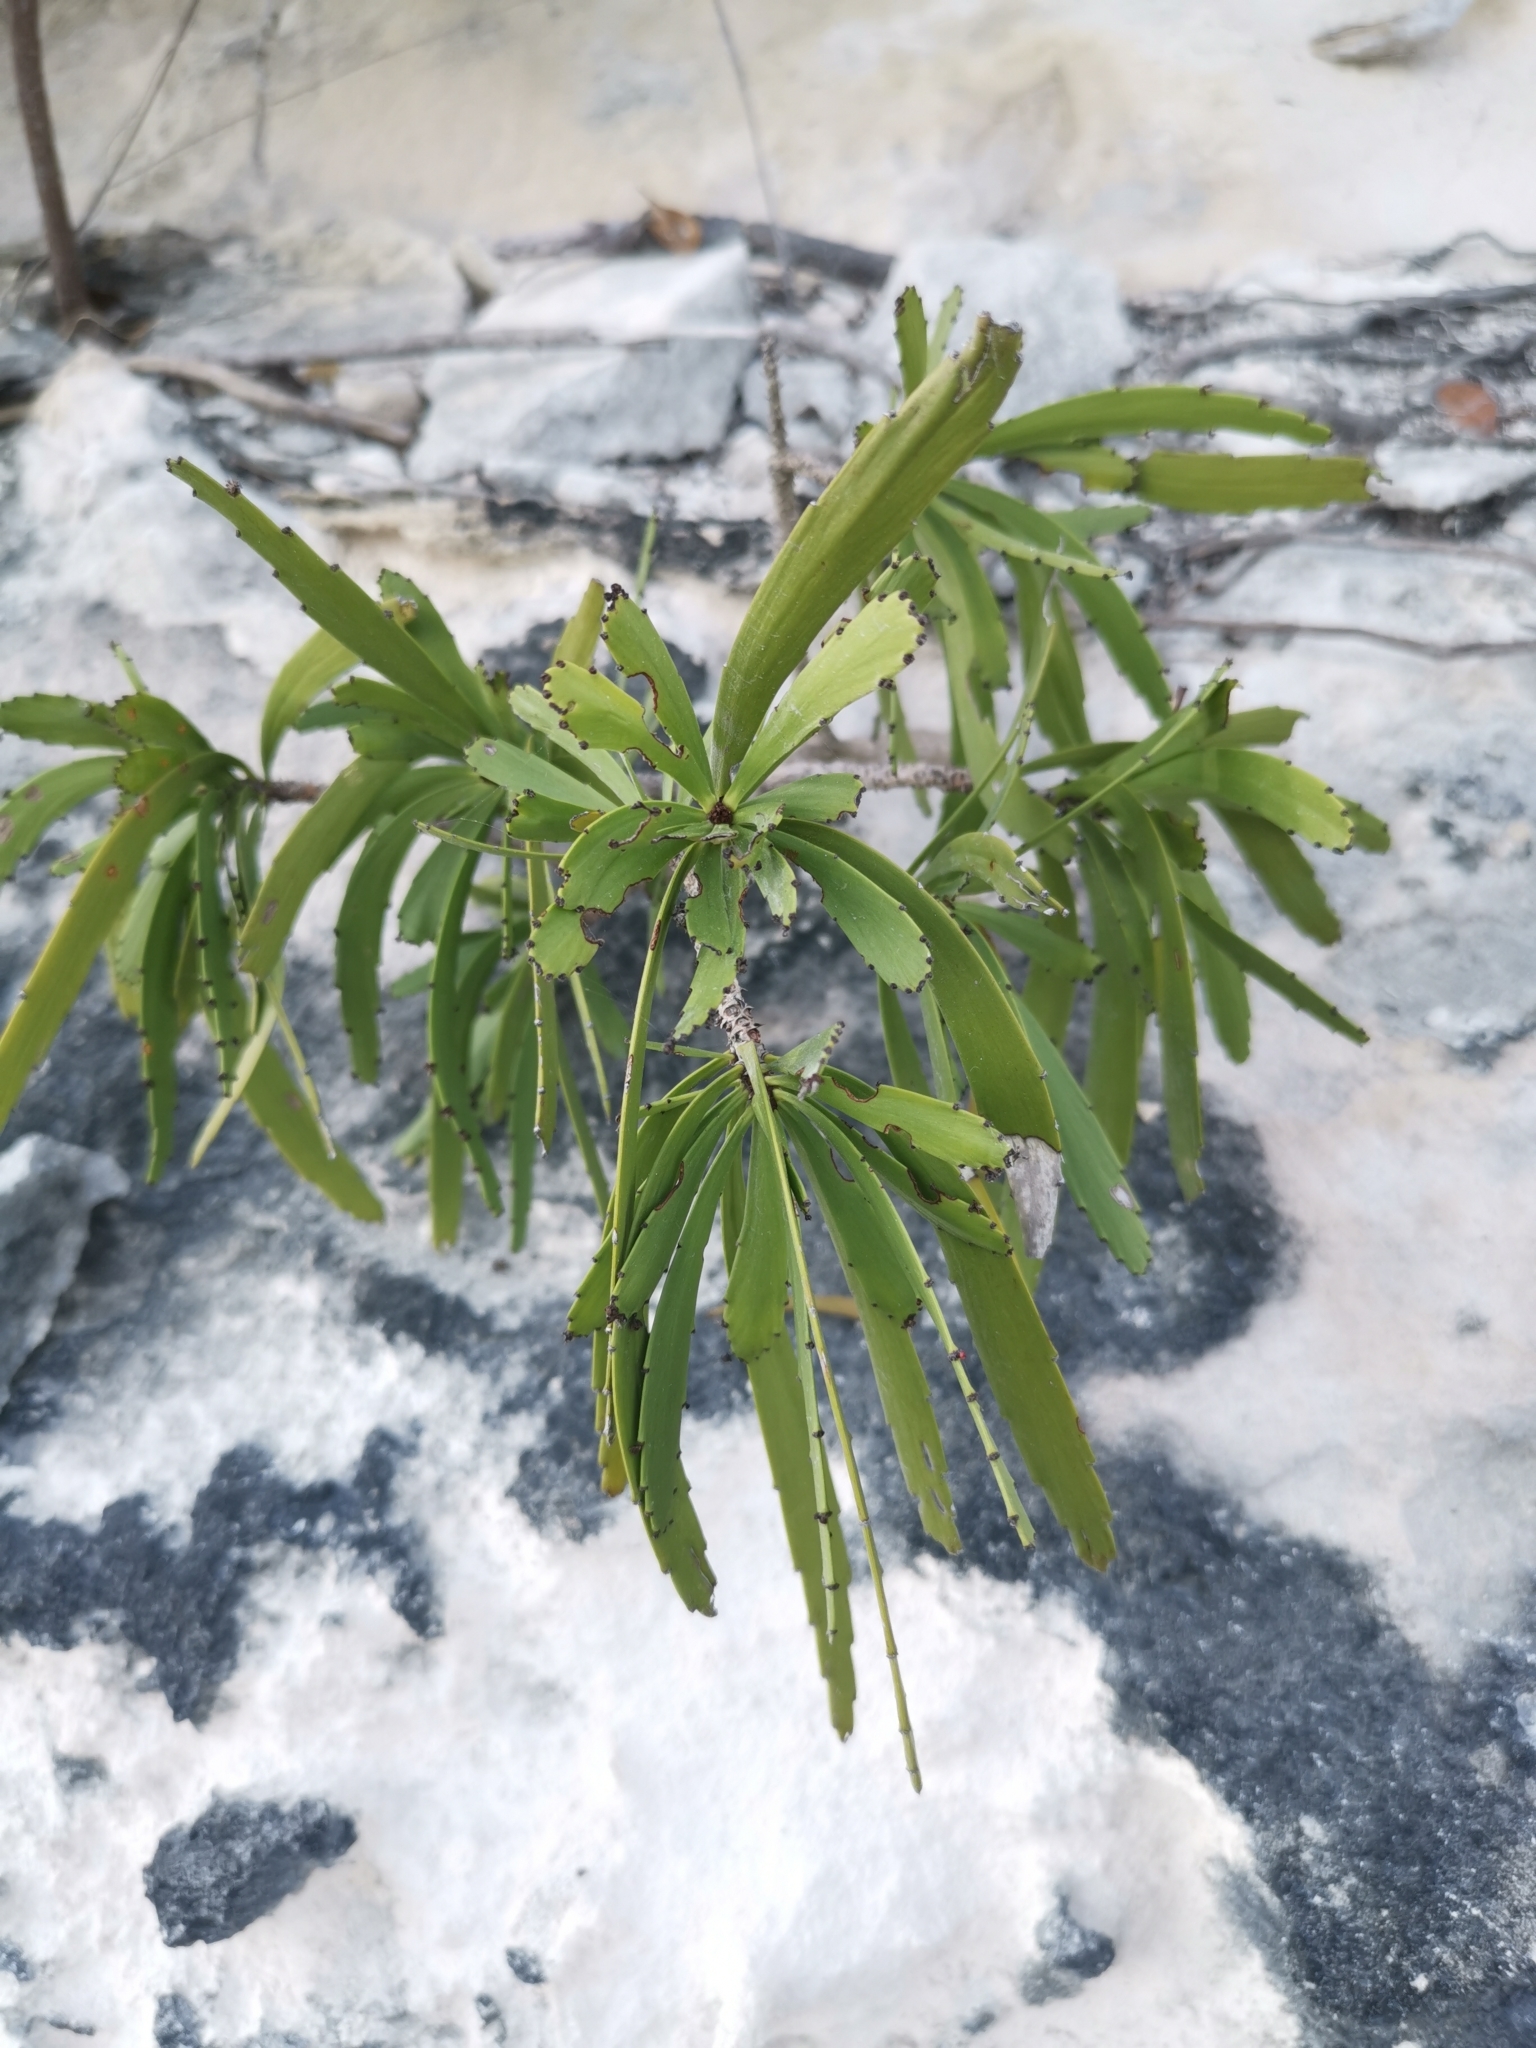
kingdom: Plantae
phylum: Tracheophyta
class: Magnoliopsida
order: Malpighiales
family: Phyllanthaceae
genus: Phyllanthus
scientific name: Phyllanthus epiphyllanthus
